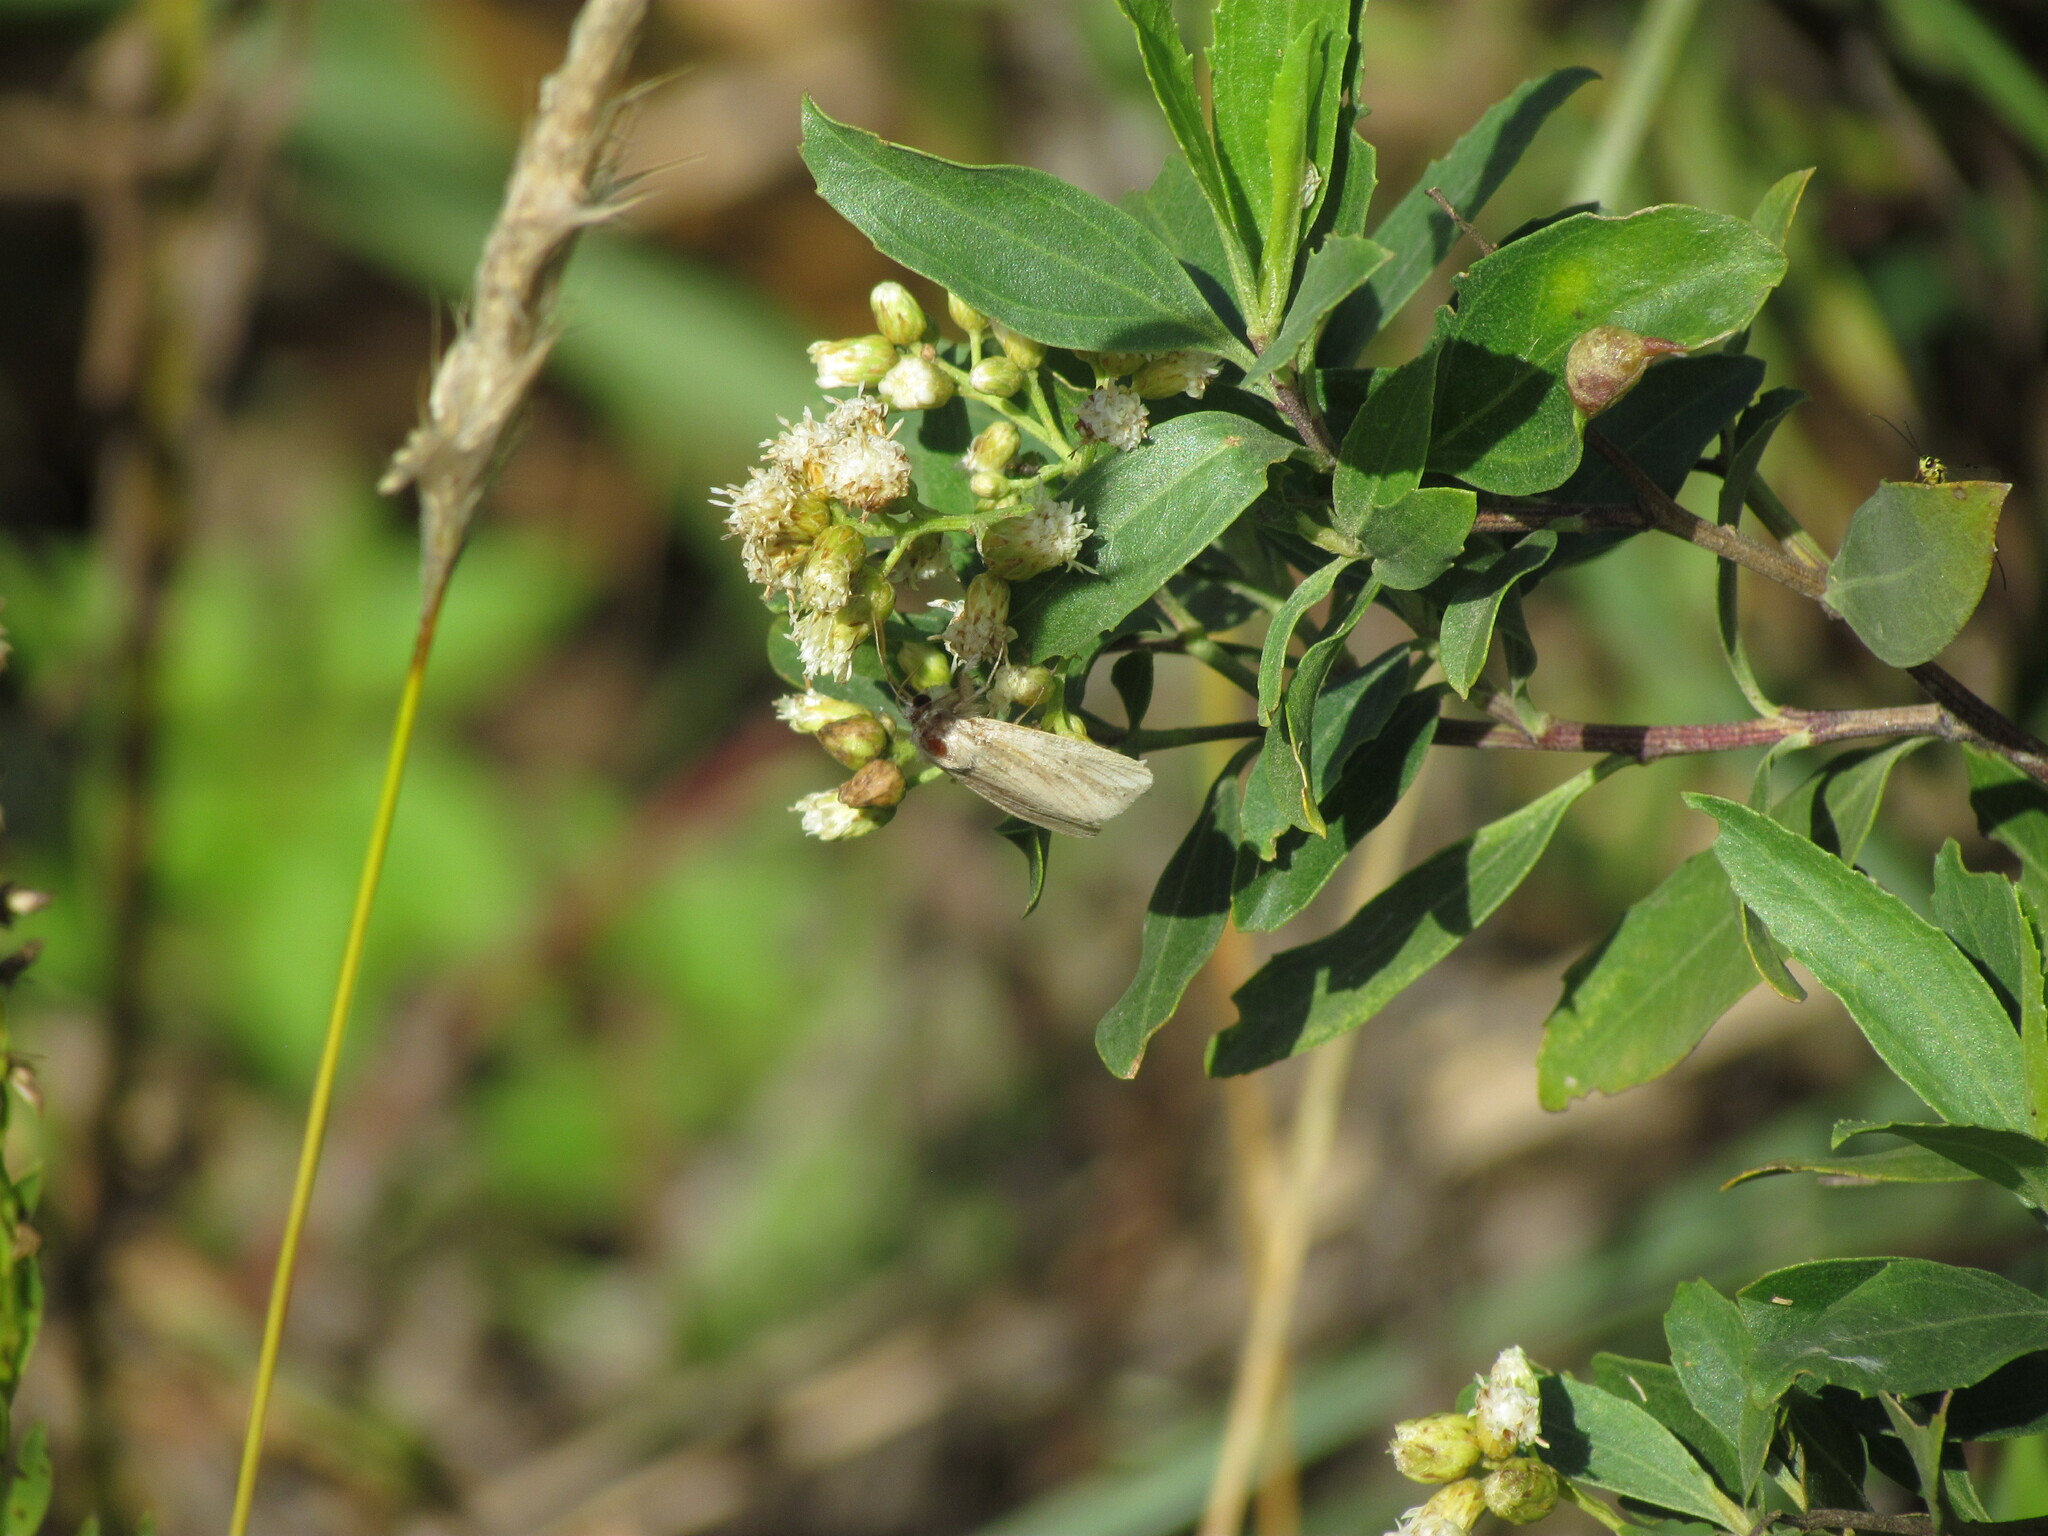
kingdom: Animalia
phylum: Arthropoda
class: Insecta
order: Lepidoptera
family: Noctuidae
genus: Dargida
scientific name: Dargida albilinea
